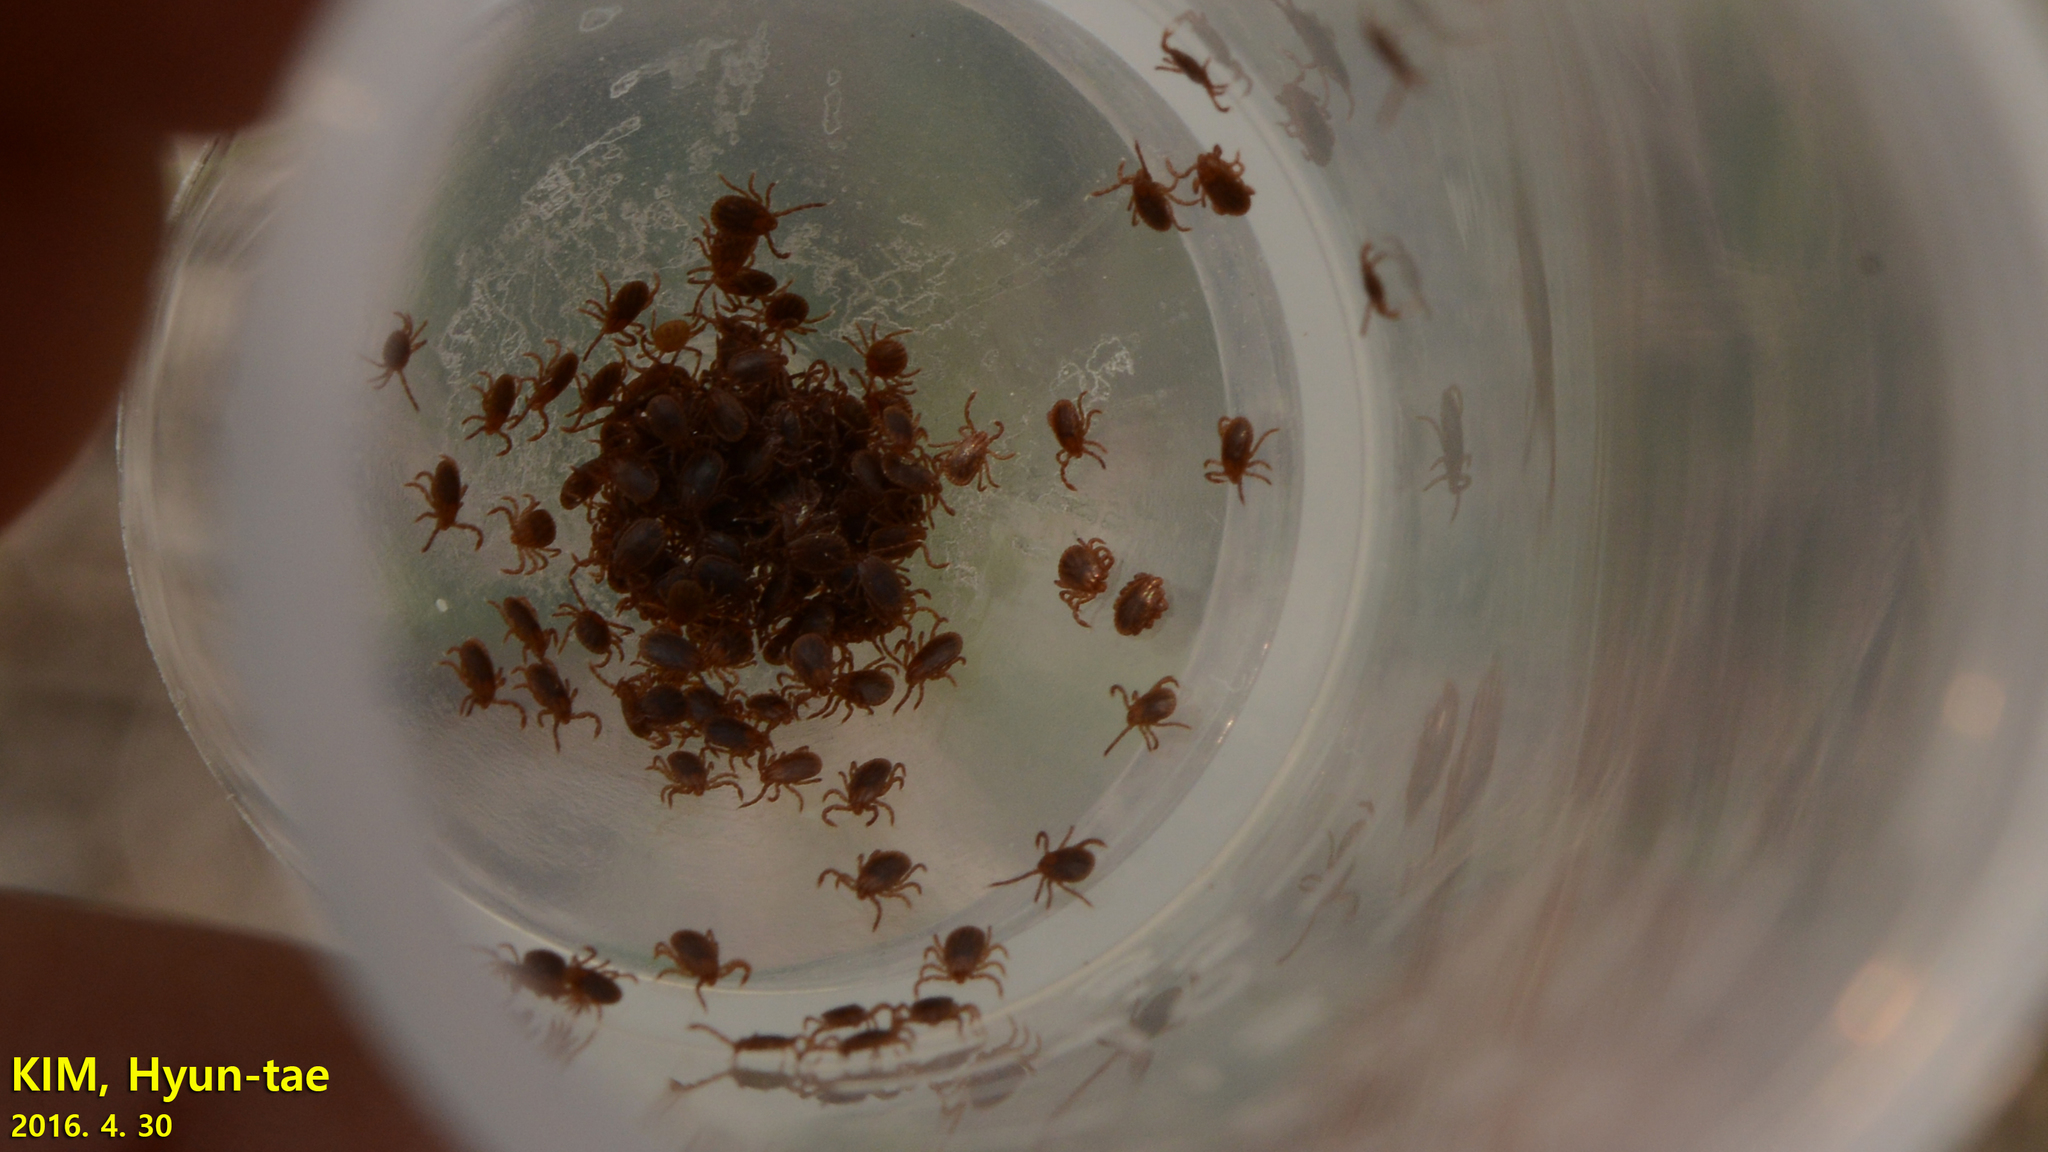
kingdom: Animalia
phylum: Arthropoda
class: Arachnida
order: Ixodida
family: Ixodidae
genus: Haemaphysalis
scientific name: Haemaphysalis longicornis
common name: Bush tick
